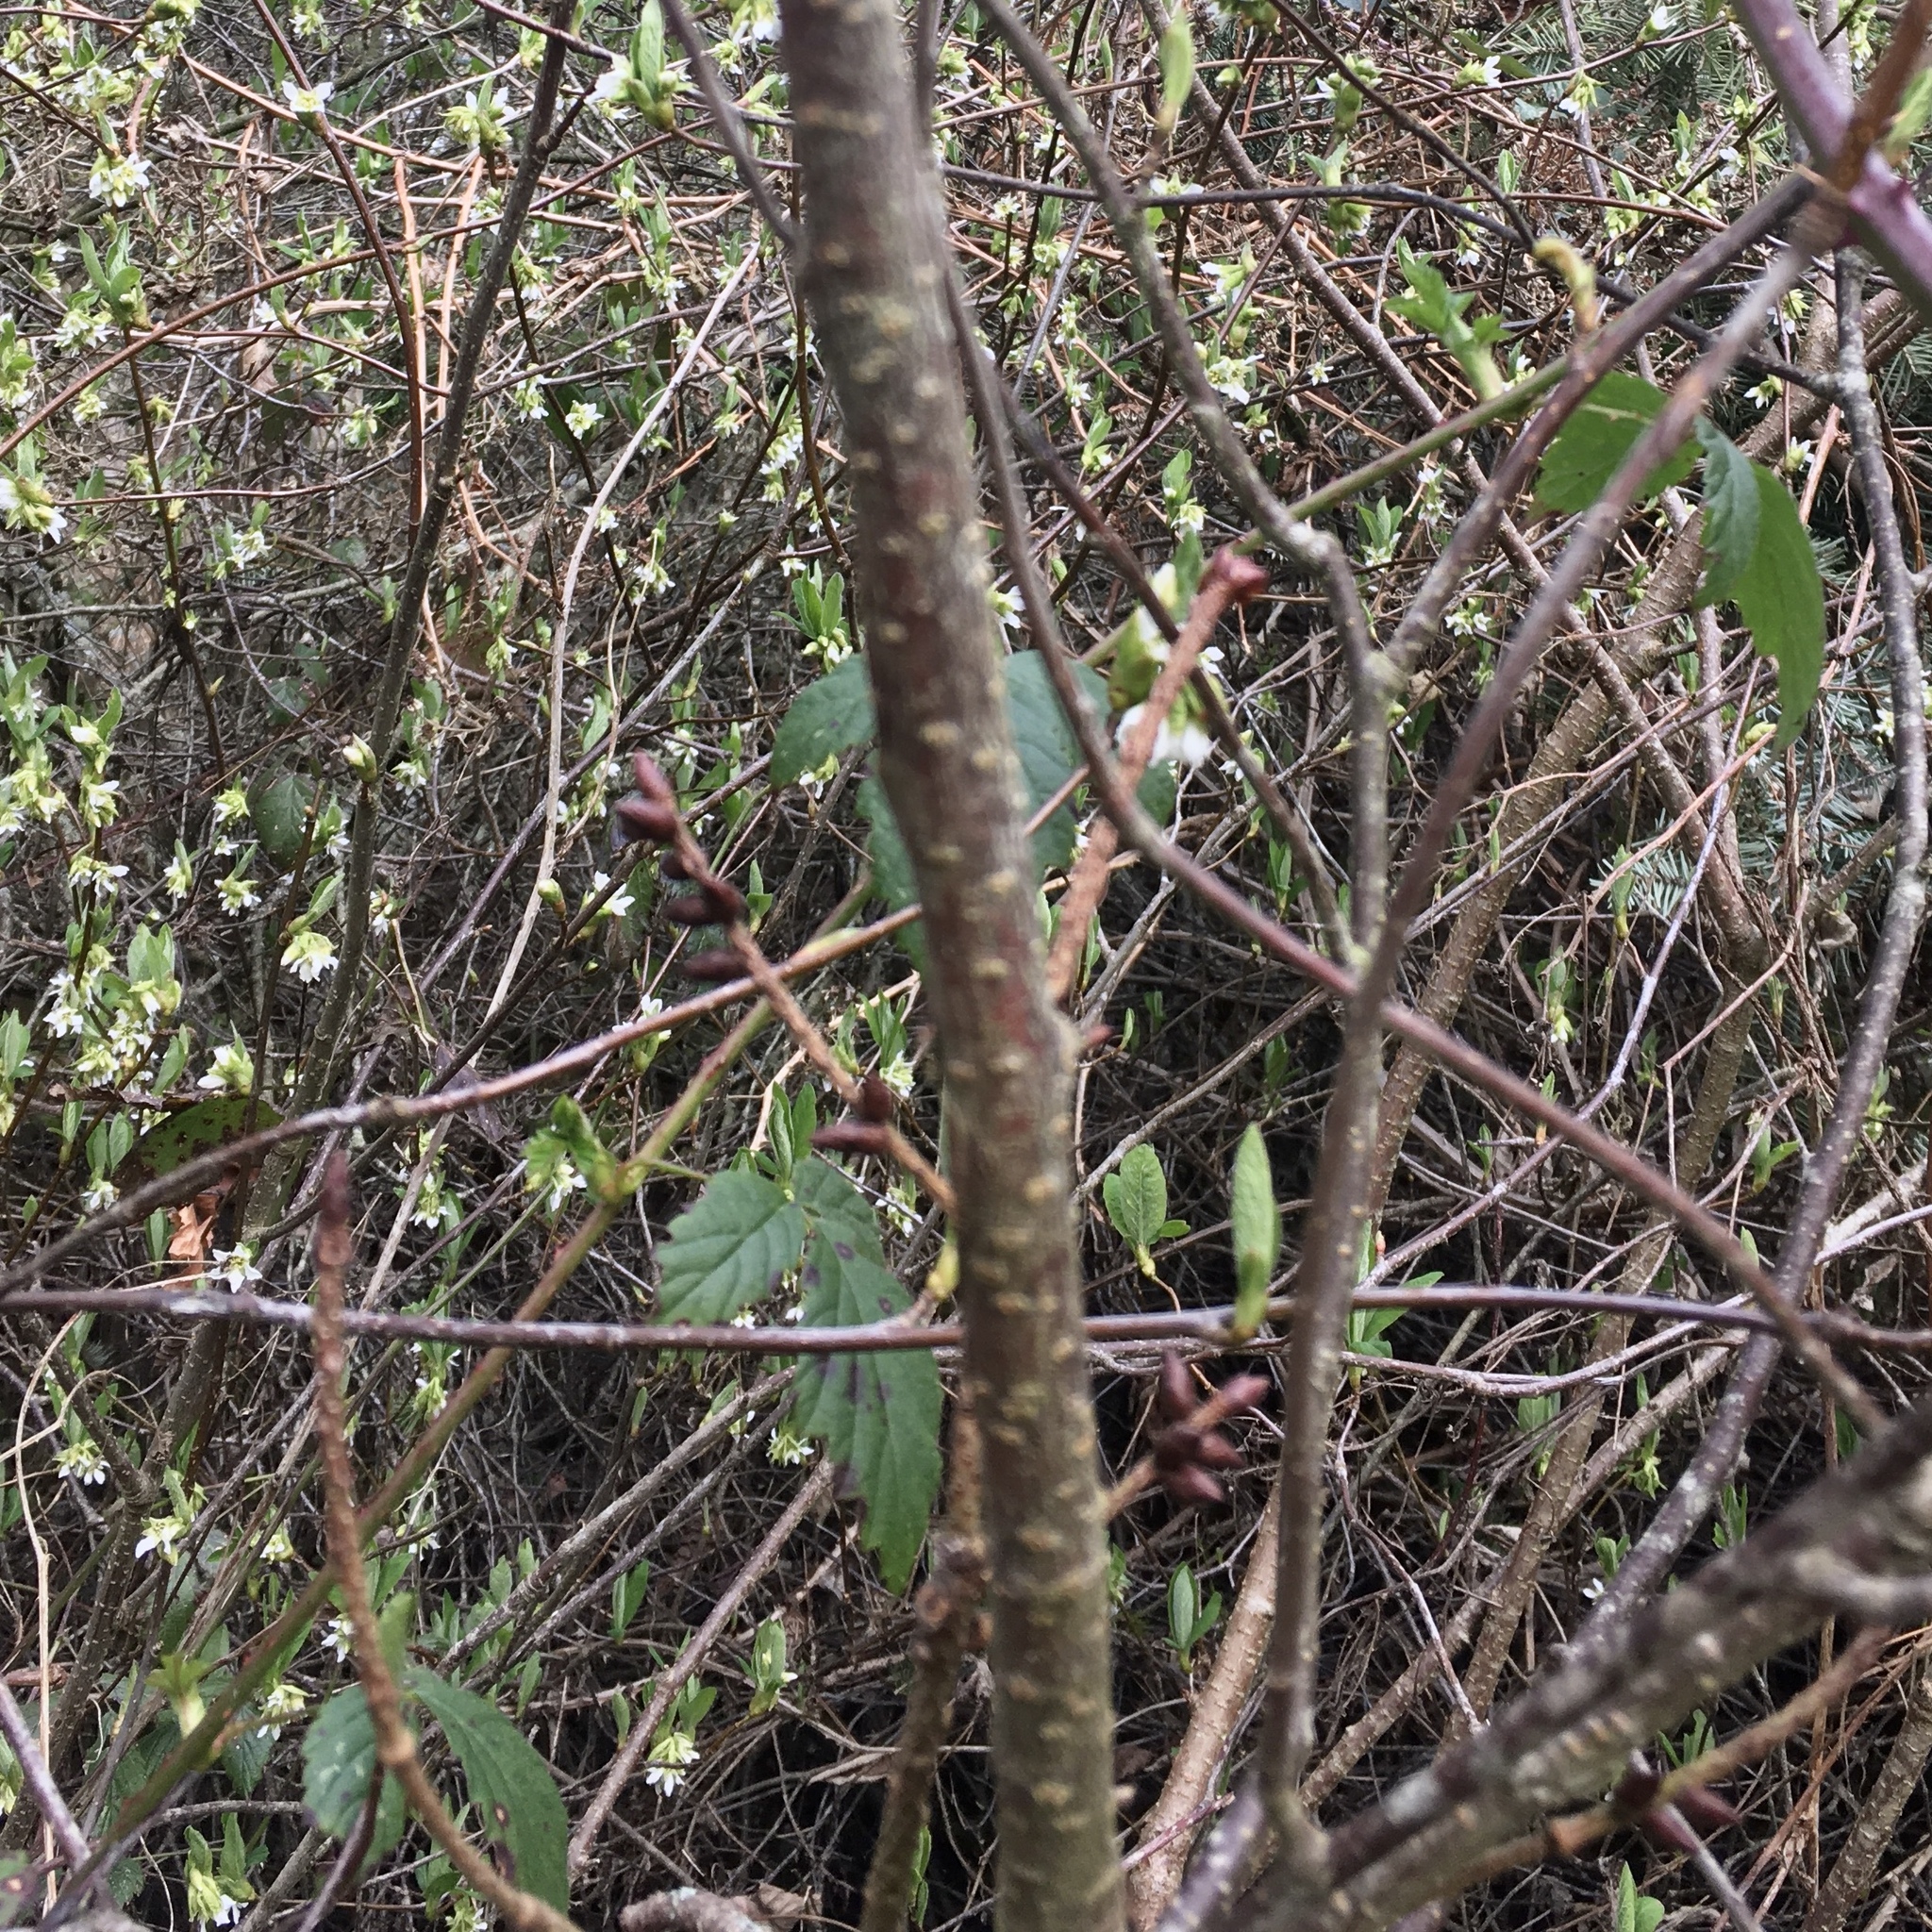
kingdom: Plantae
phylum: Tracheophyta
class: Magnoliopsida
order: Rosales
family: Rosaceae
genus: Oemleria
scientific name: Oemleria cerasiformis
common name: Osoberry
